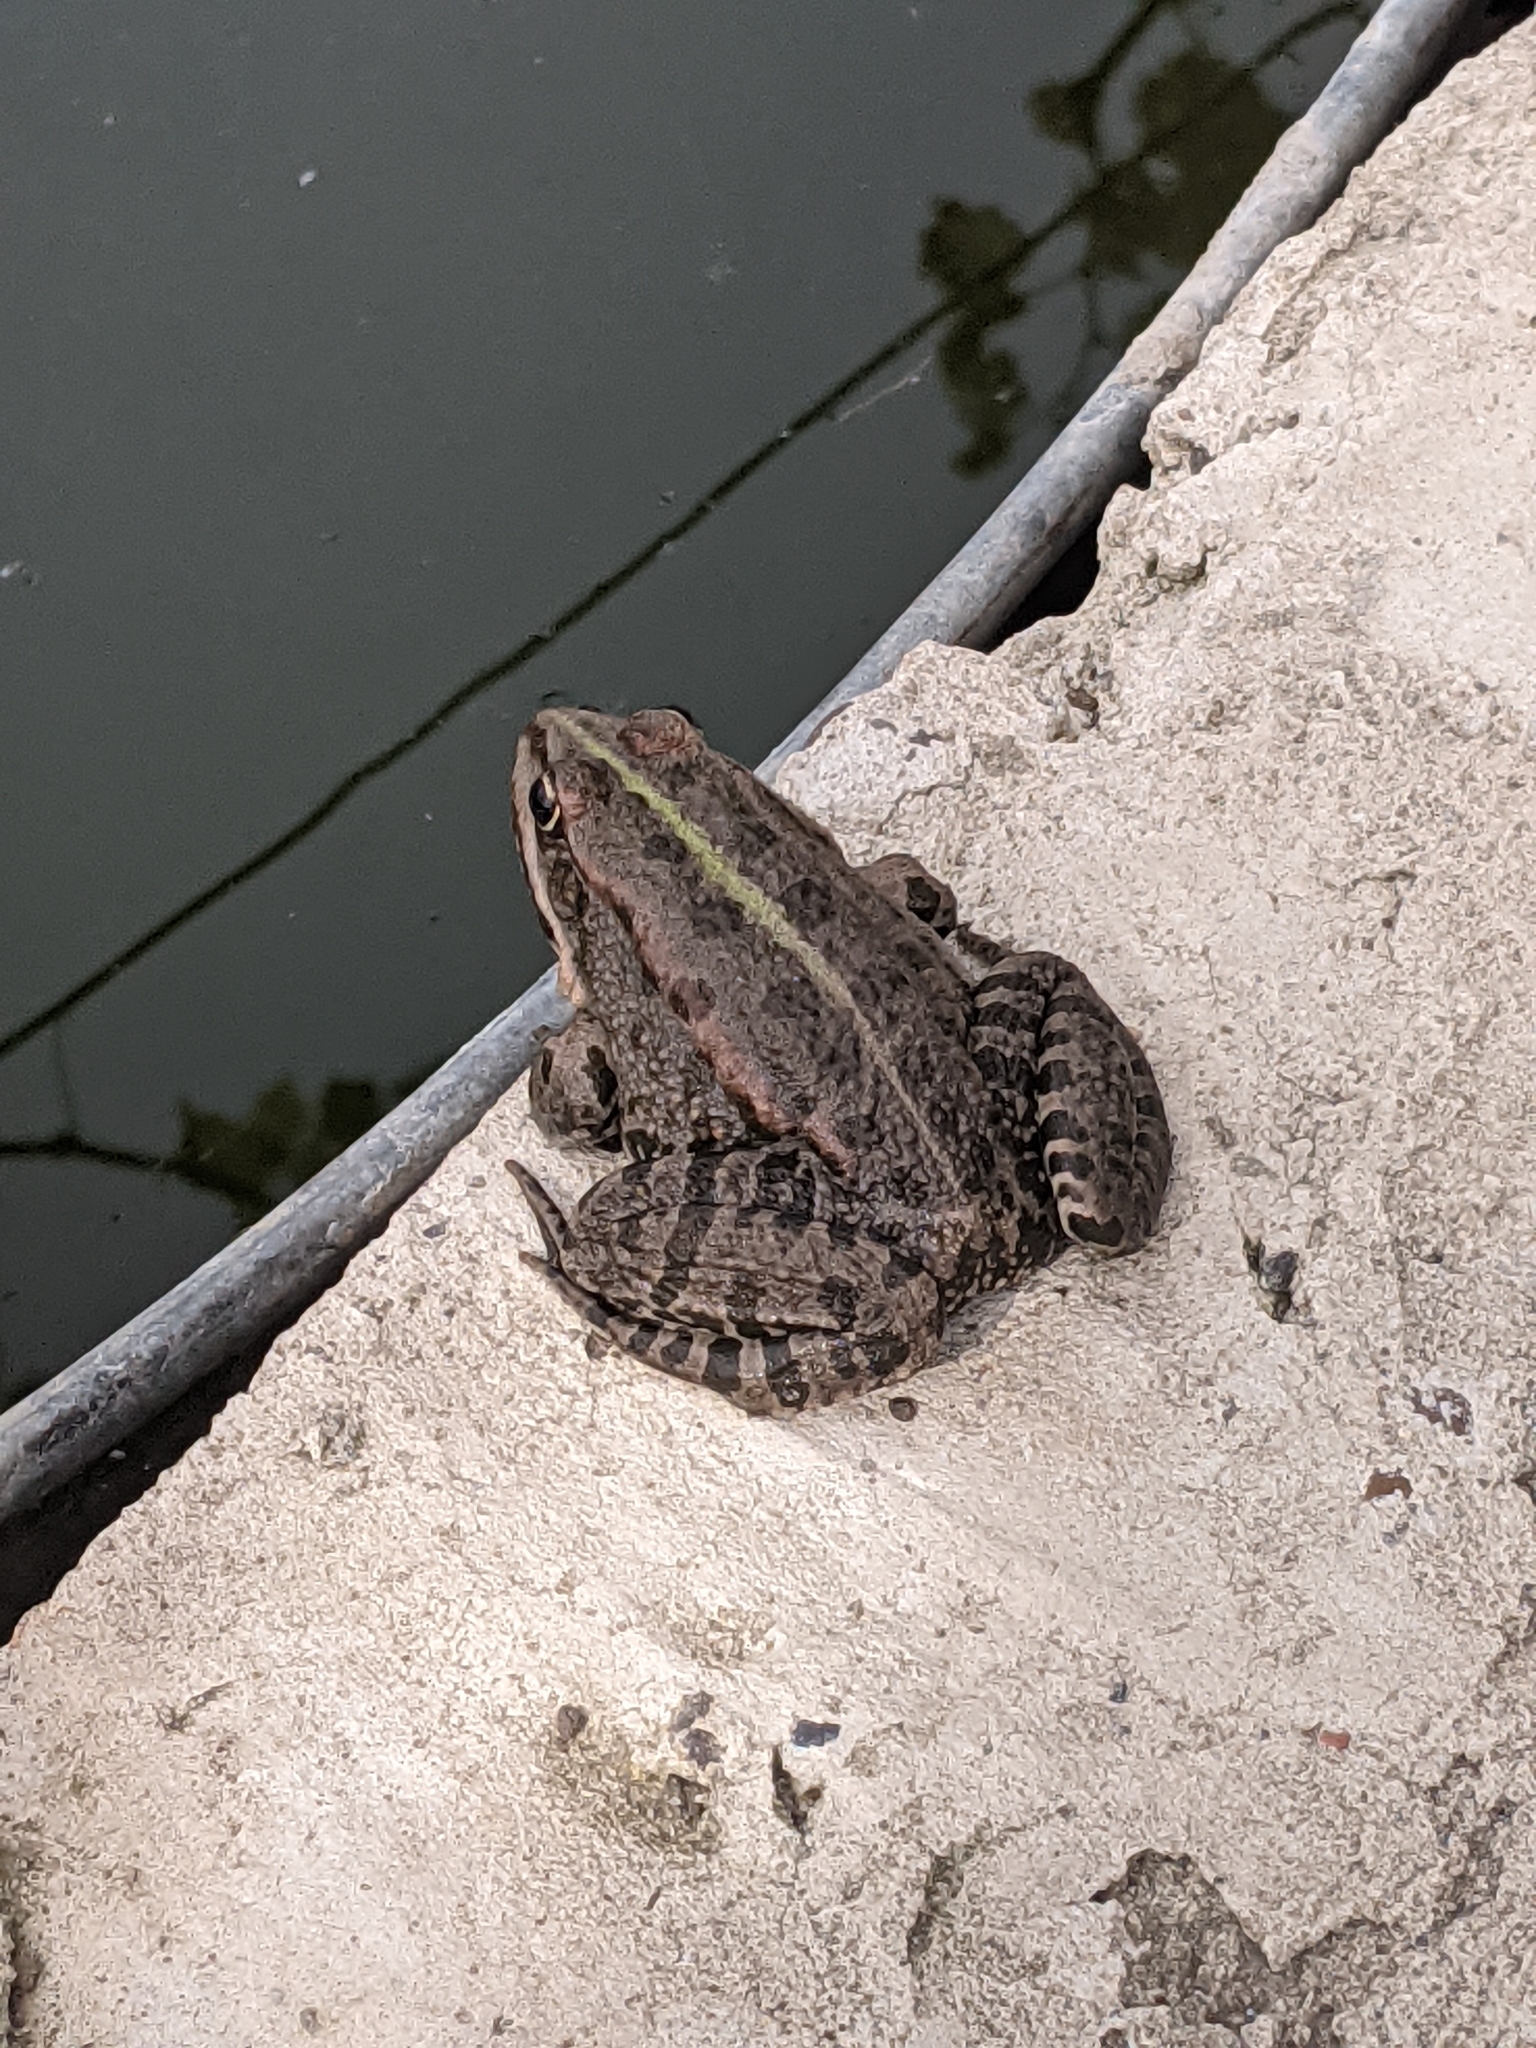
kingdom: Animalia
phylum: Chordata
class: Amphibia
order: Anura
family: Ranidae
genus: Pelophylax
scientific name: Pelophylax ridibundus
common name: Marsh frog
